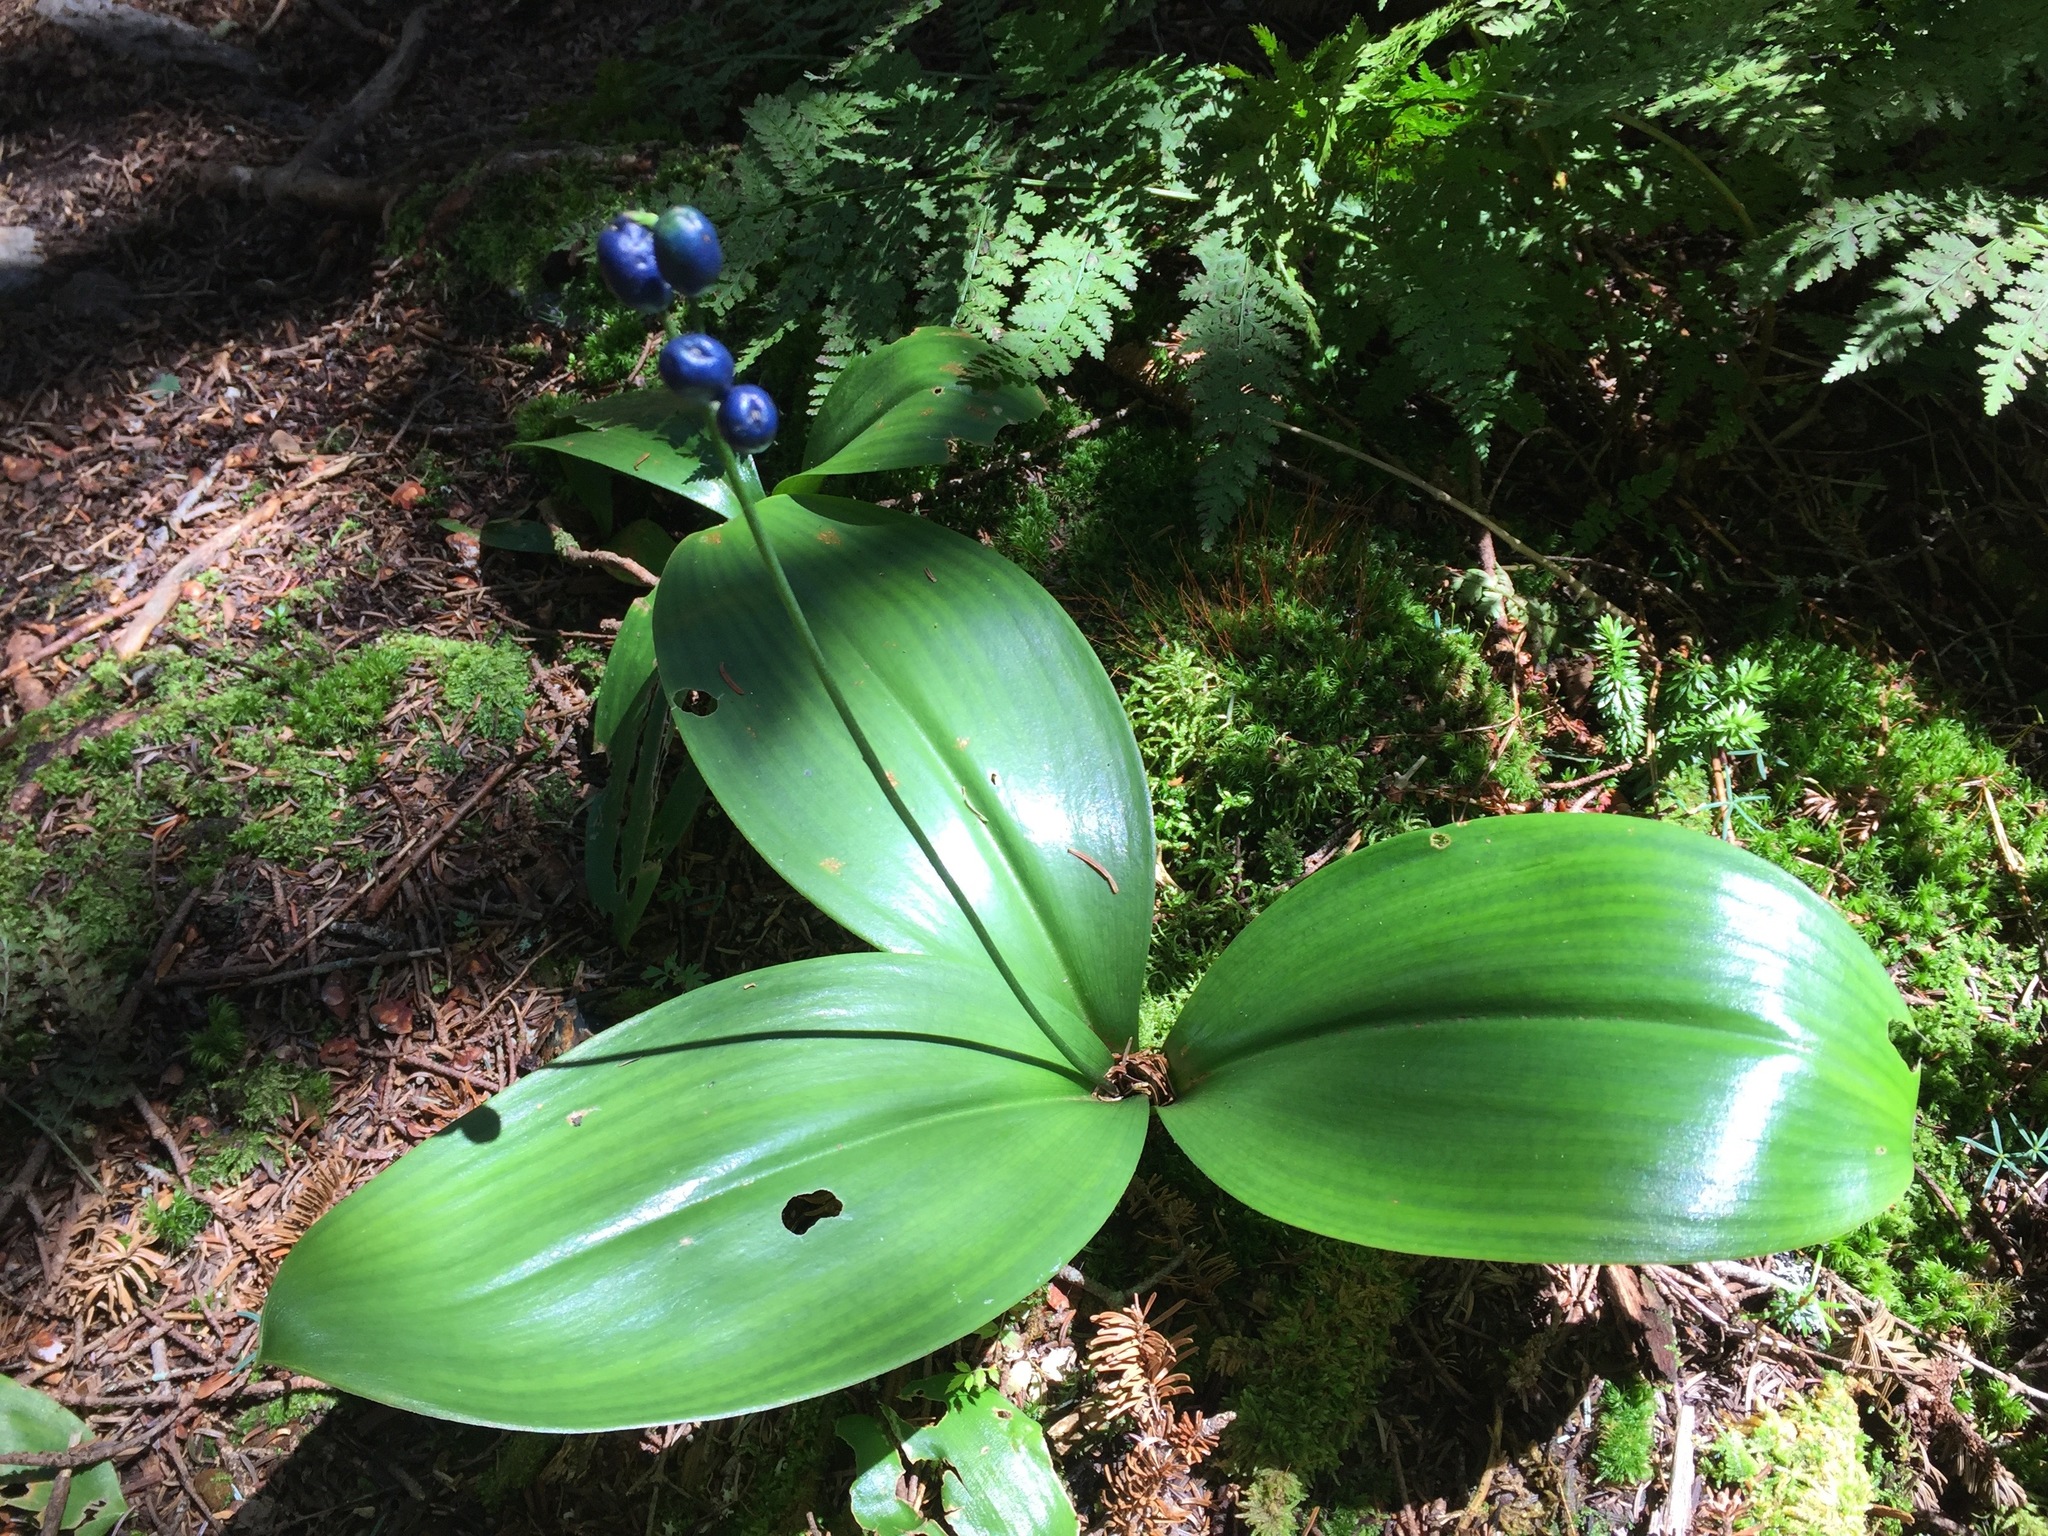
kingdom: Plantae
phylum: Tracheophyta
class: Liliopsida
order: Liliales
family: Liliaceae
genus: Clintonia
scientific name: Clintonia borealis
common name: Yellow clintonia
